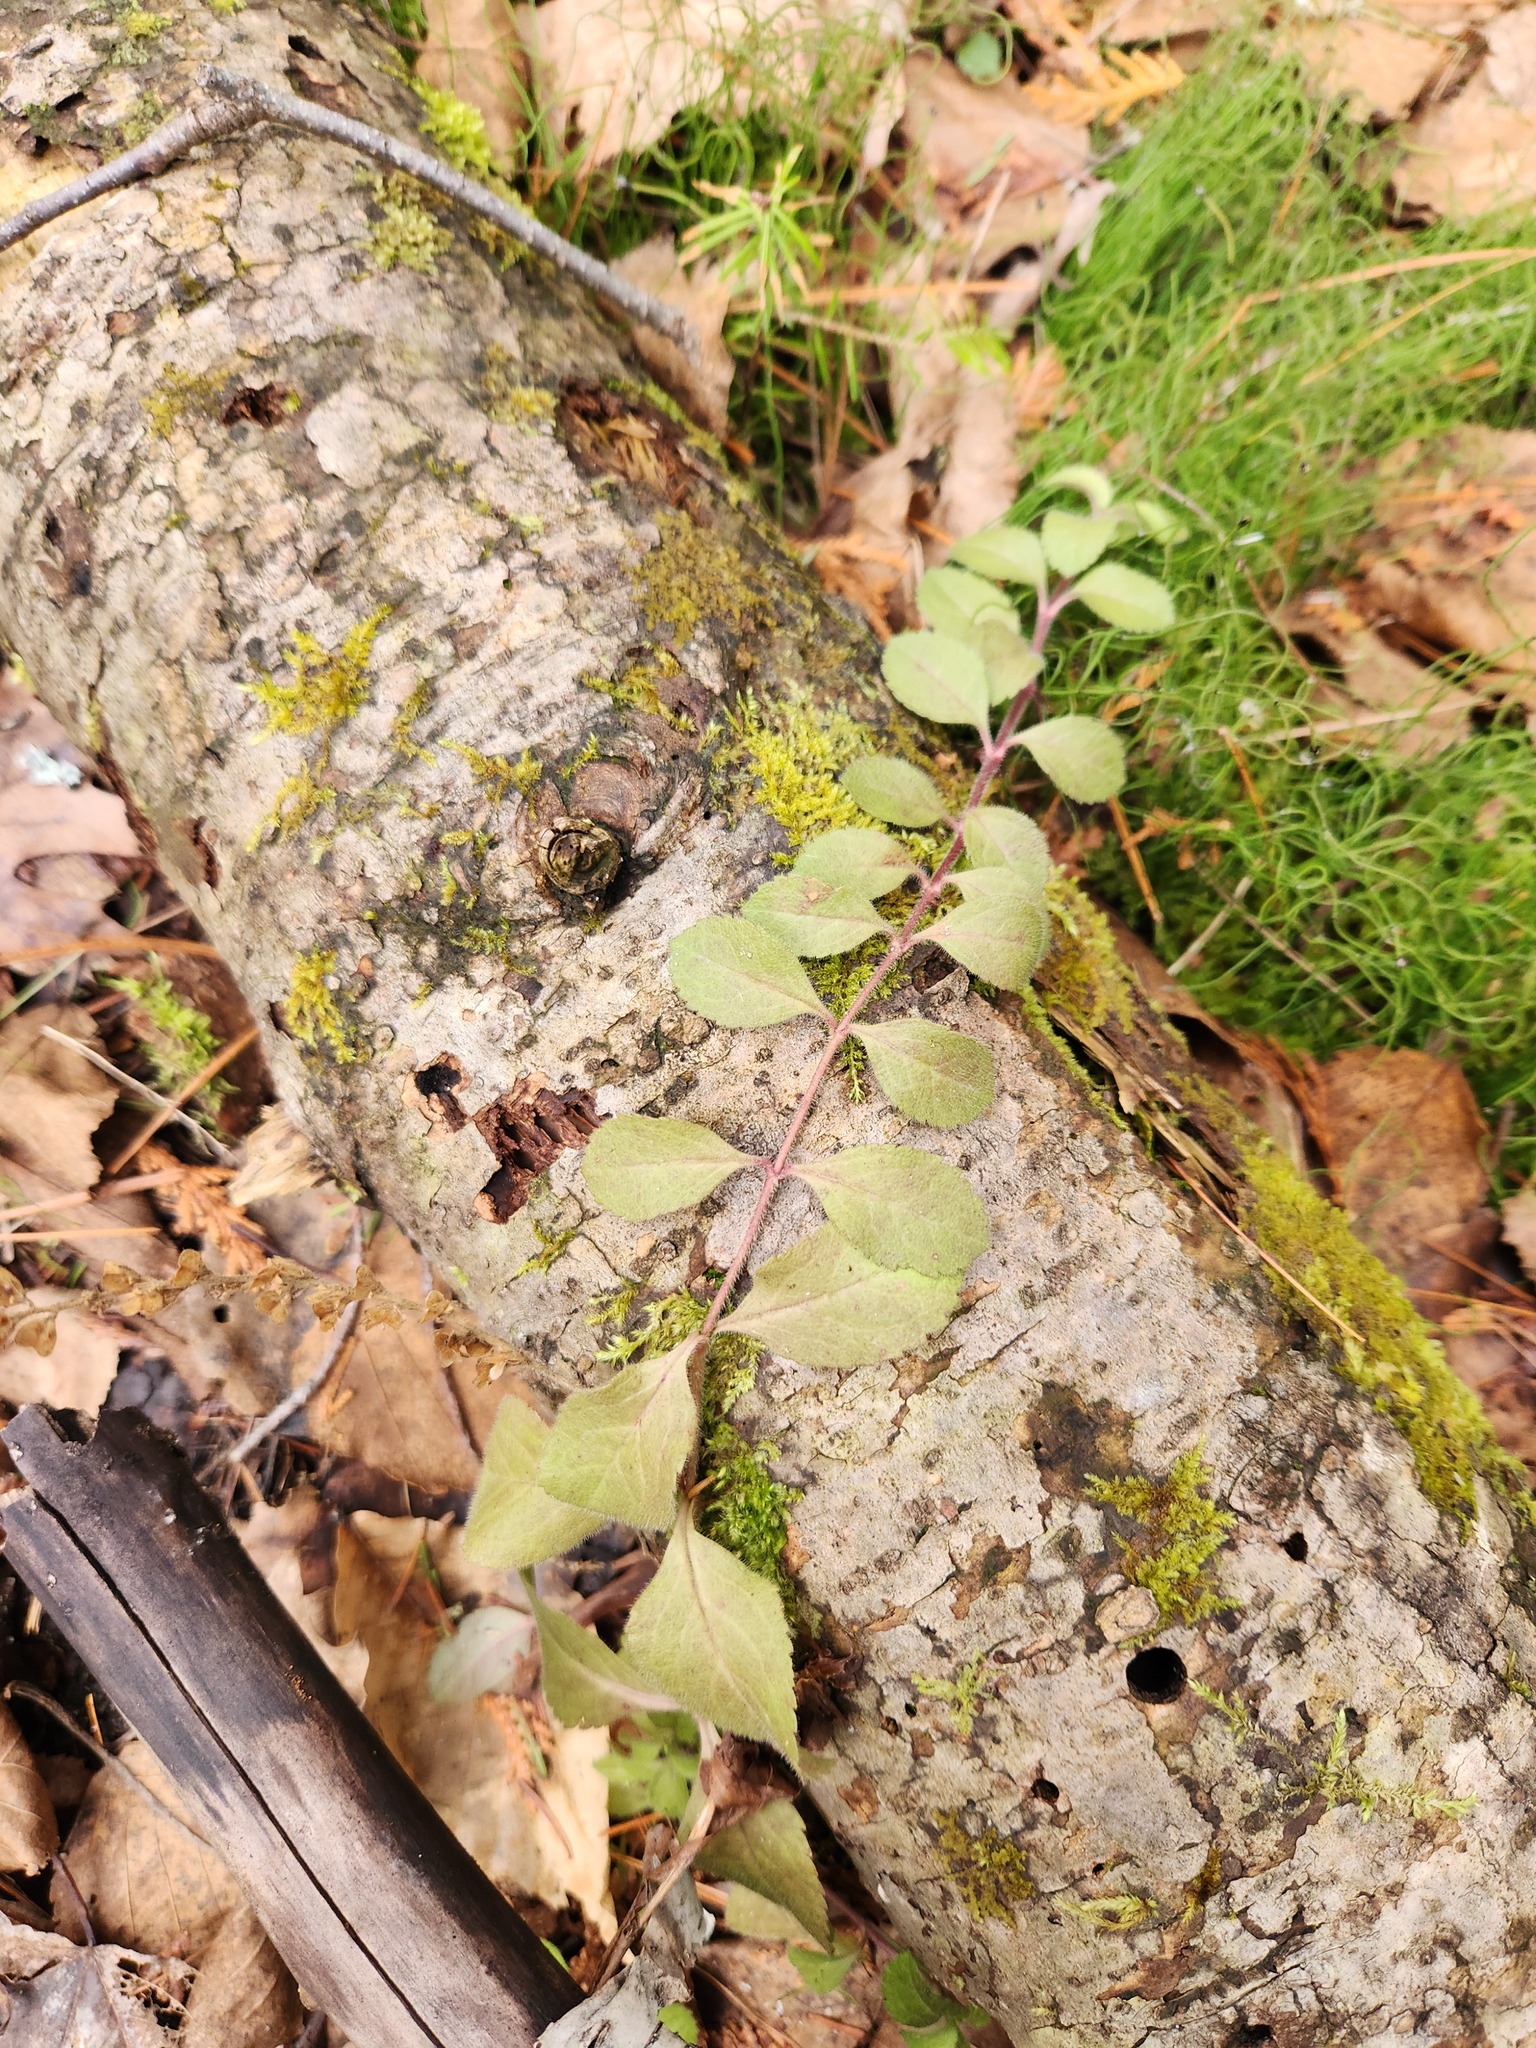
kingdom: Plantae
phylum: Tracheophyta
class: Magnoliopsida
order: Lamiales
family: Plantaginaceae
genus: Veronica
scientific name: Veronica officinalis
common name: Common speedwell
